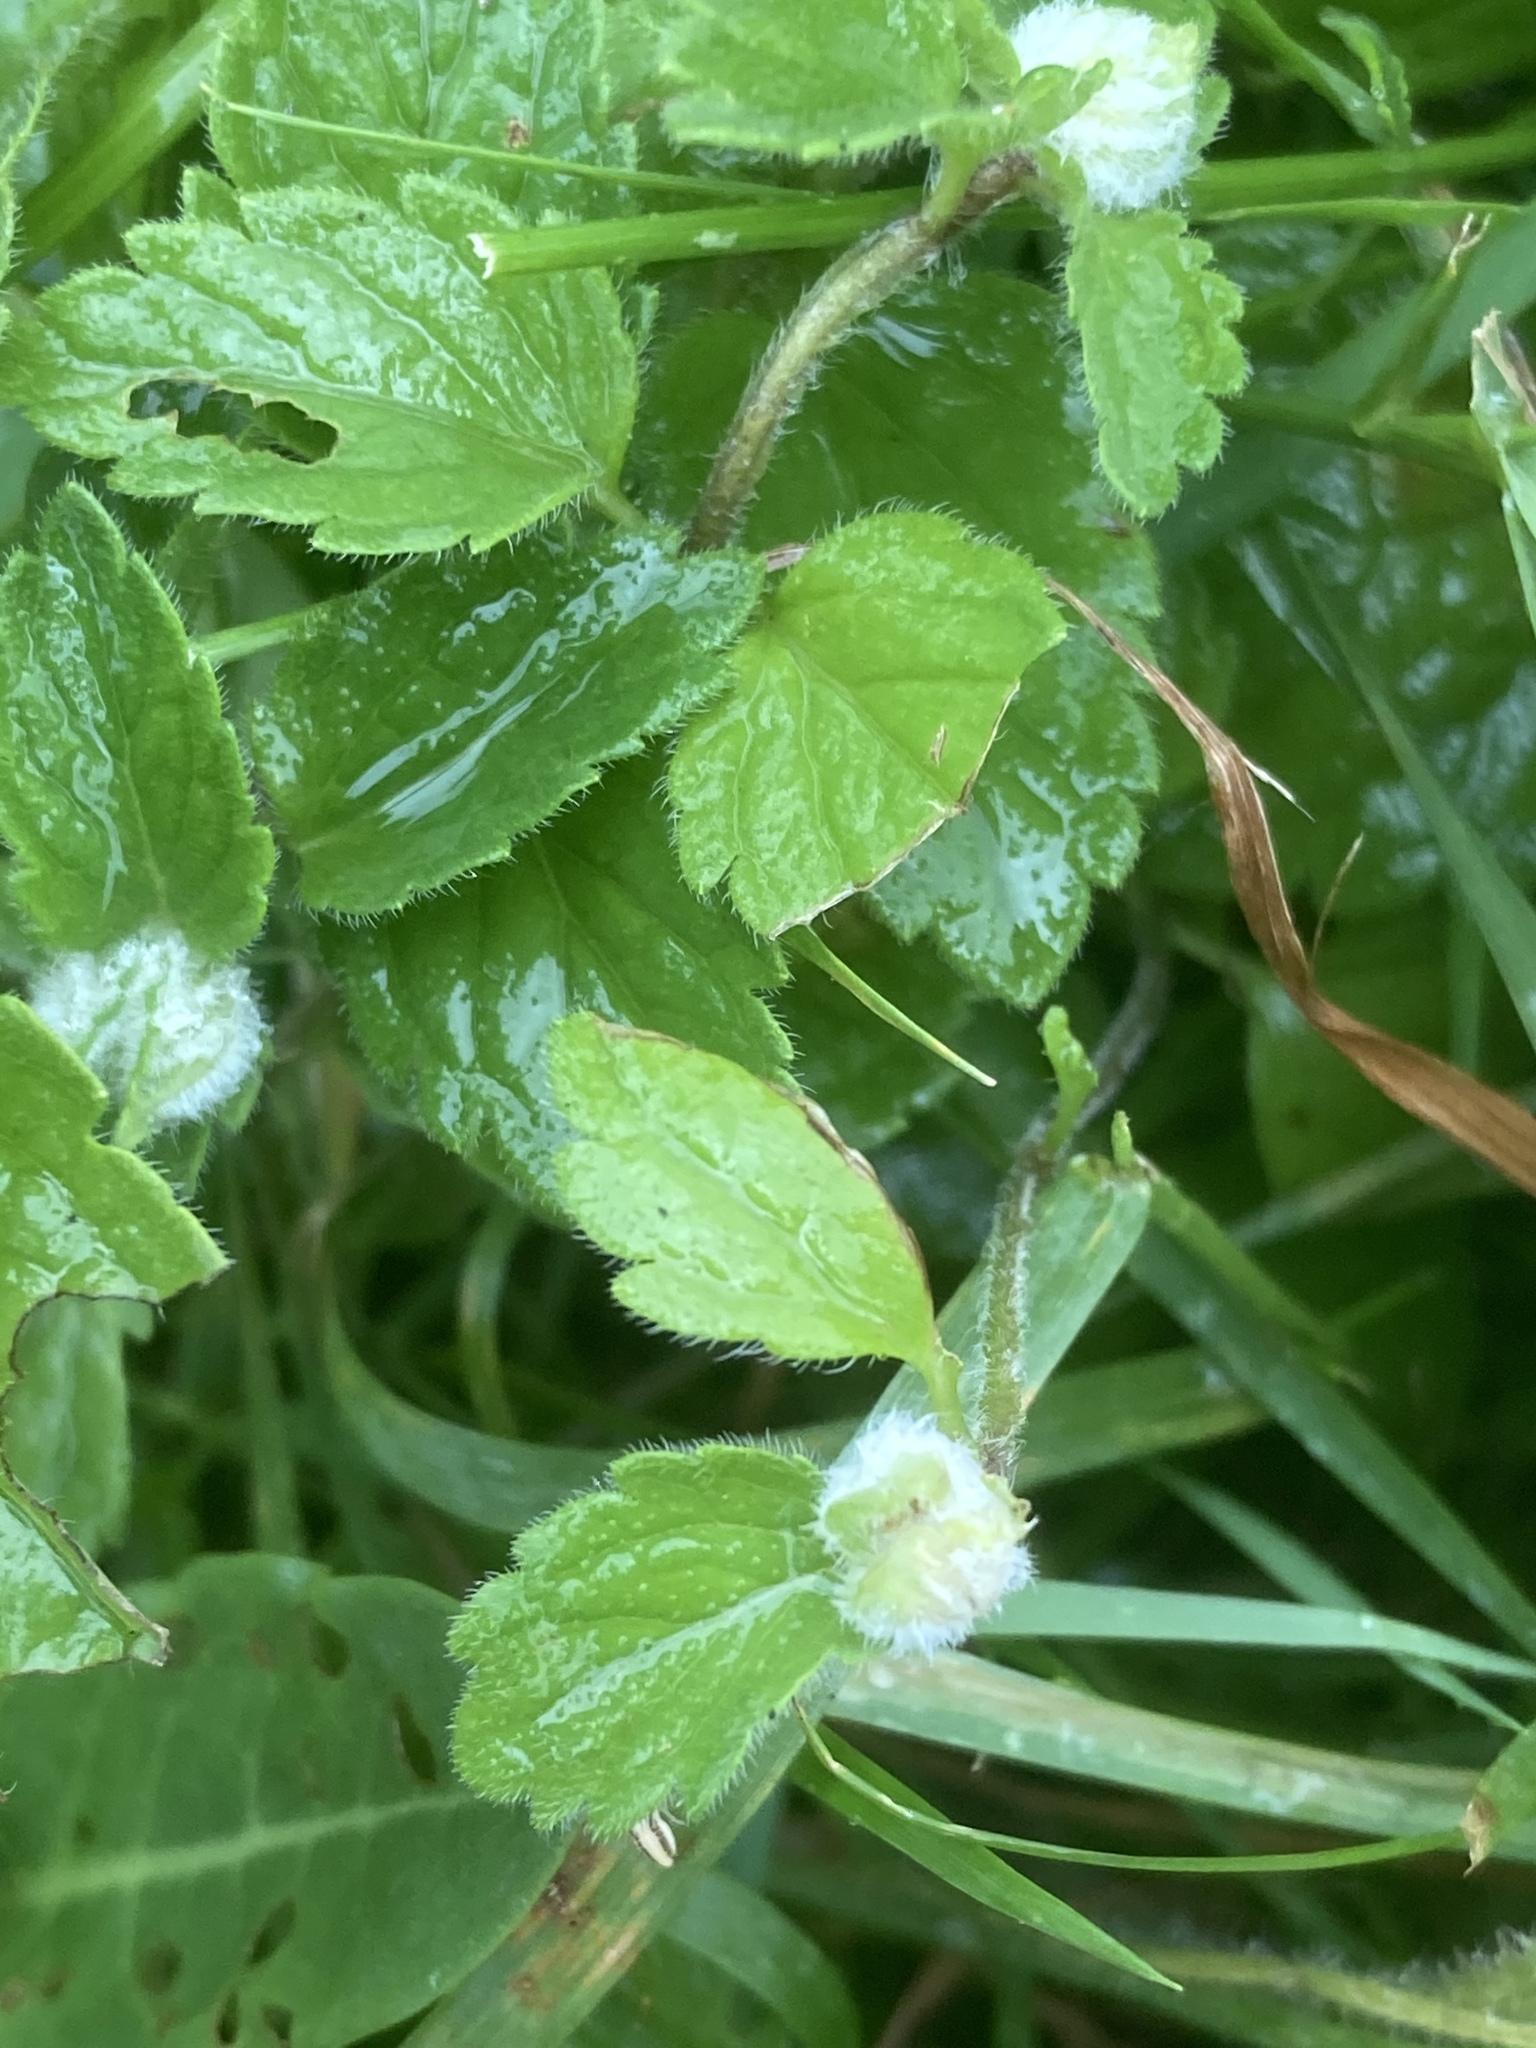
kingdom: Plantae
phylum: Tracheophyta
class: Magnoliopsida
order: Lamiales
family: Plantaginaceae
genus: Veronica
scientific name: Veronica chamaedrys
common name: Germander speedwell
